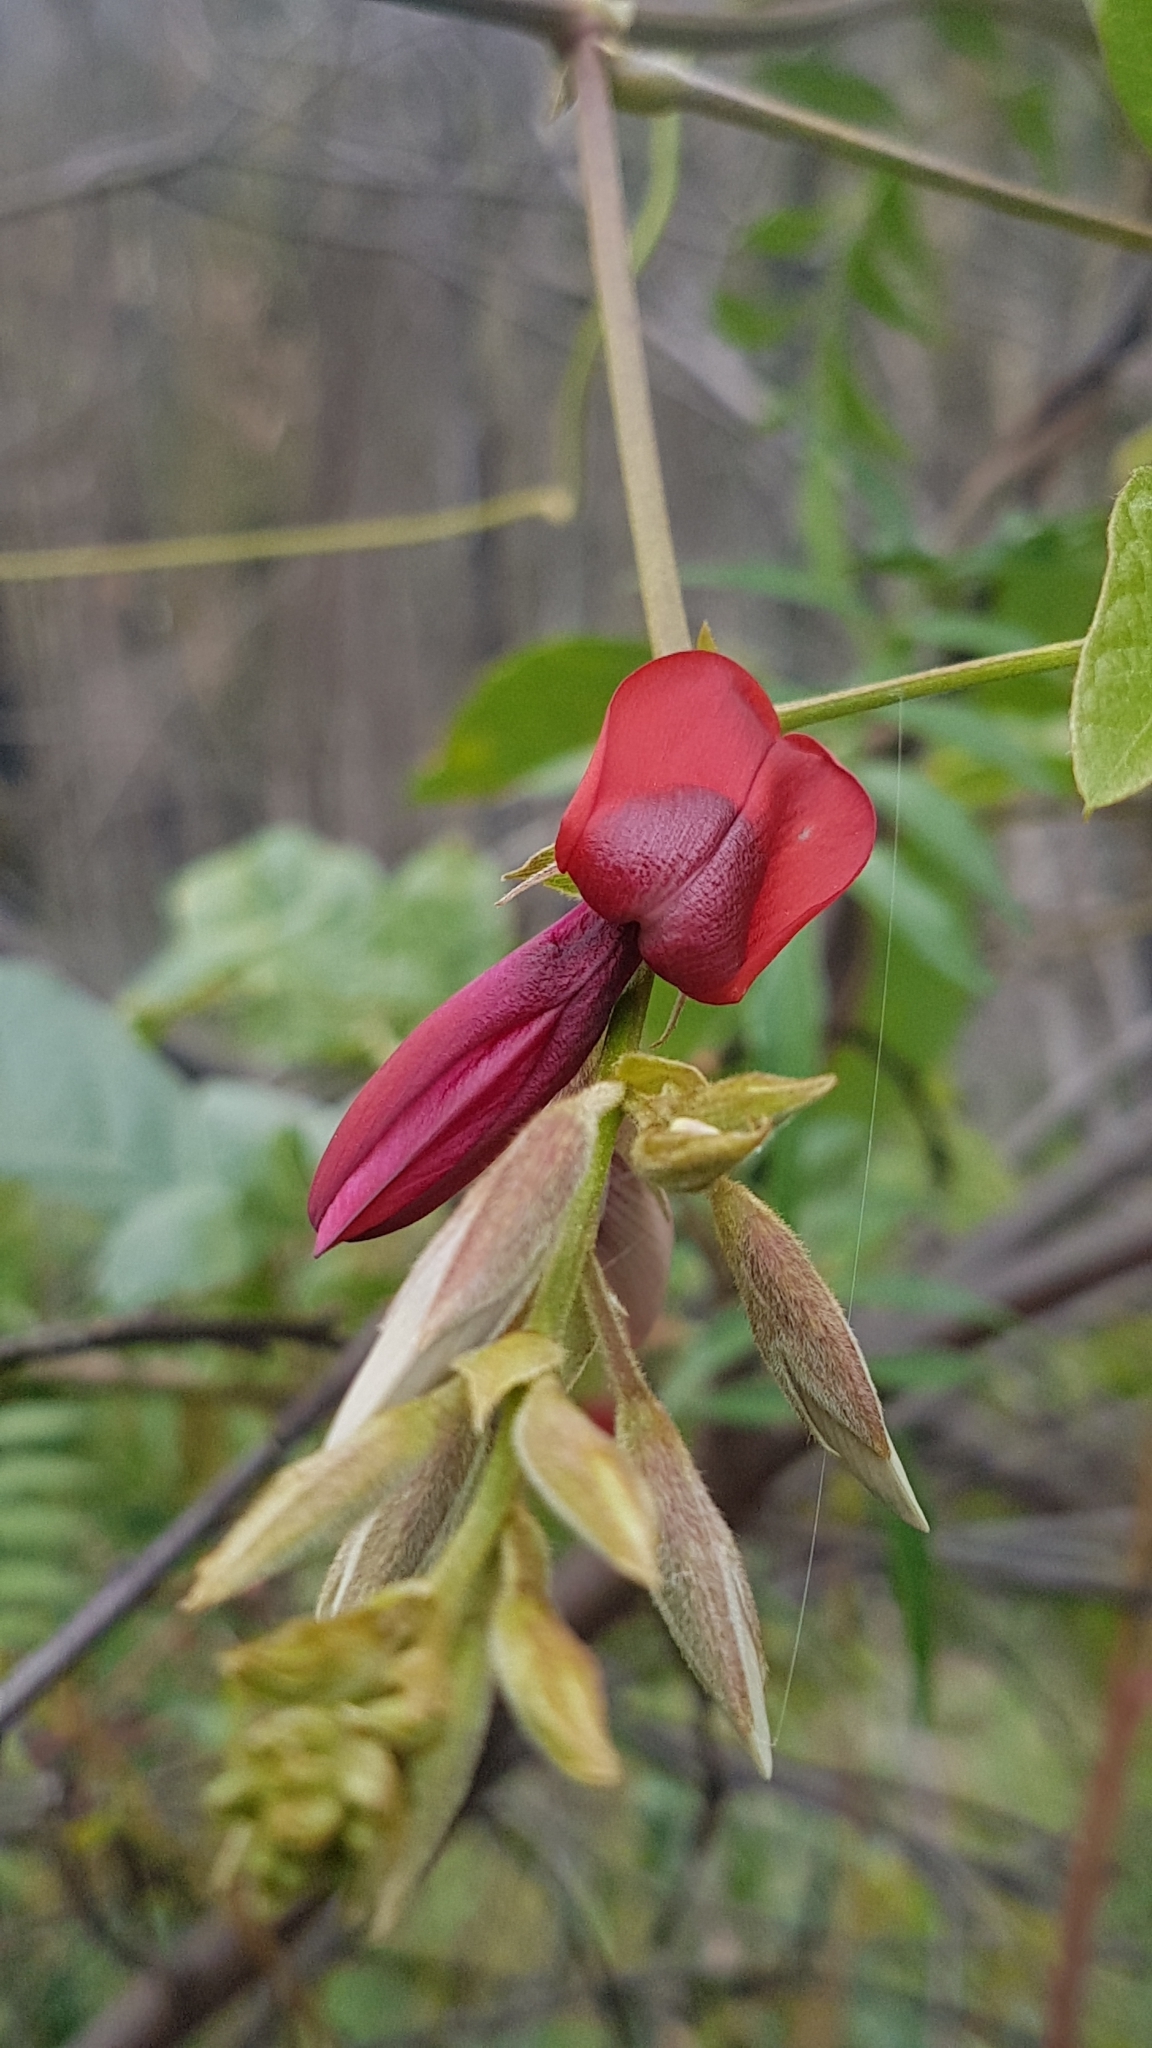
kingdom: Plantae
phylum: Tracheophyta
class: Magnoliopsida
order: Fabales
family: Fabaceae
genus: Kennedia
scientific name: Kennedia rubicunda
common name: Red kennedy-pea
